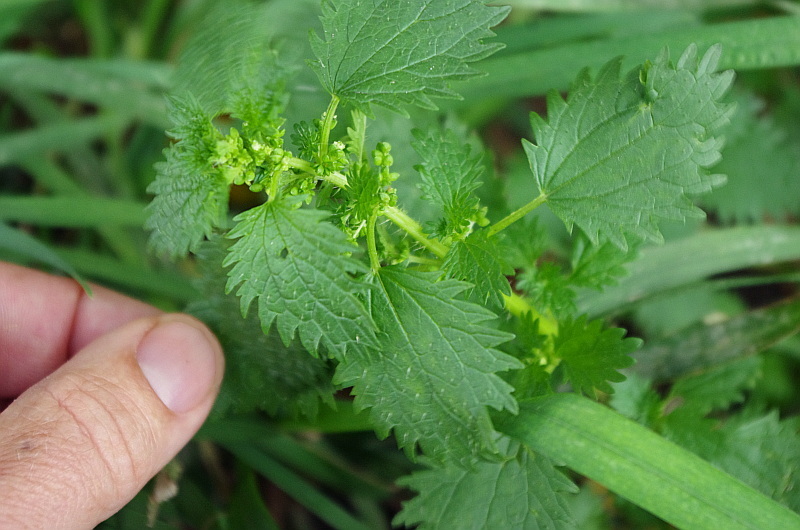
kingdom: Plantae
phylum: Tracheophyta
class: Magnoliopsida
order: Rosales
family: Urticaceae
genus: Urtica
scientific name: Urtica urens
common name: Dwarf nettle
